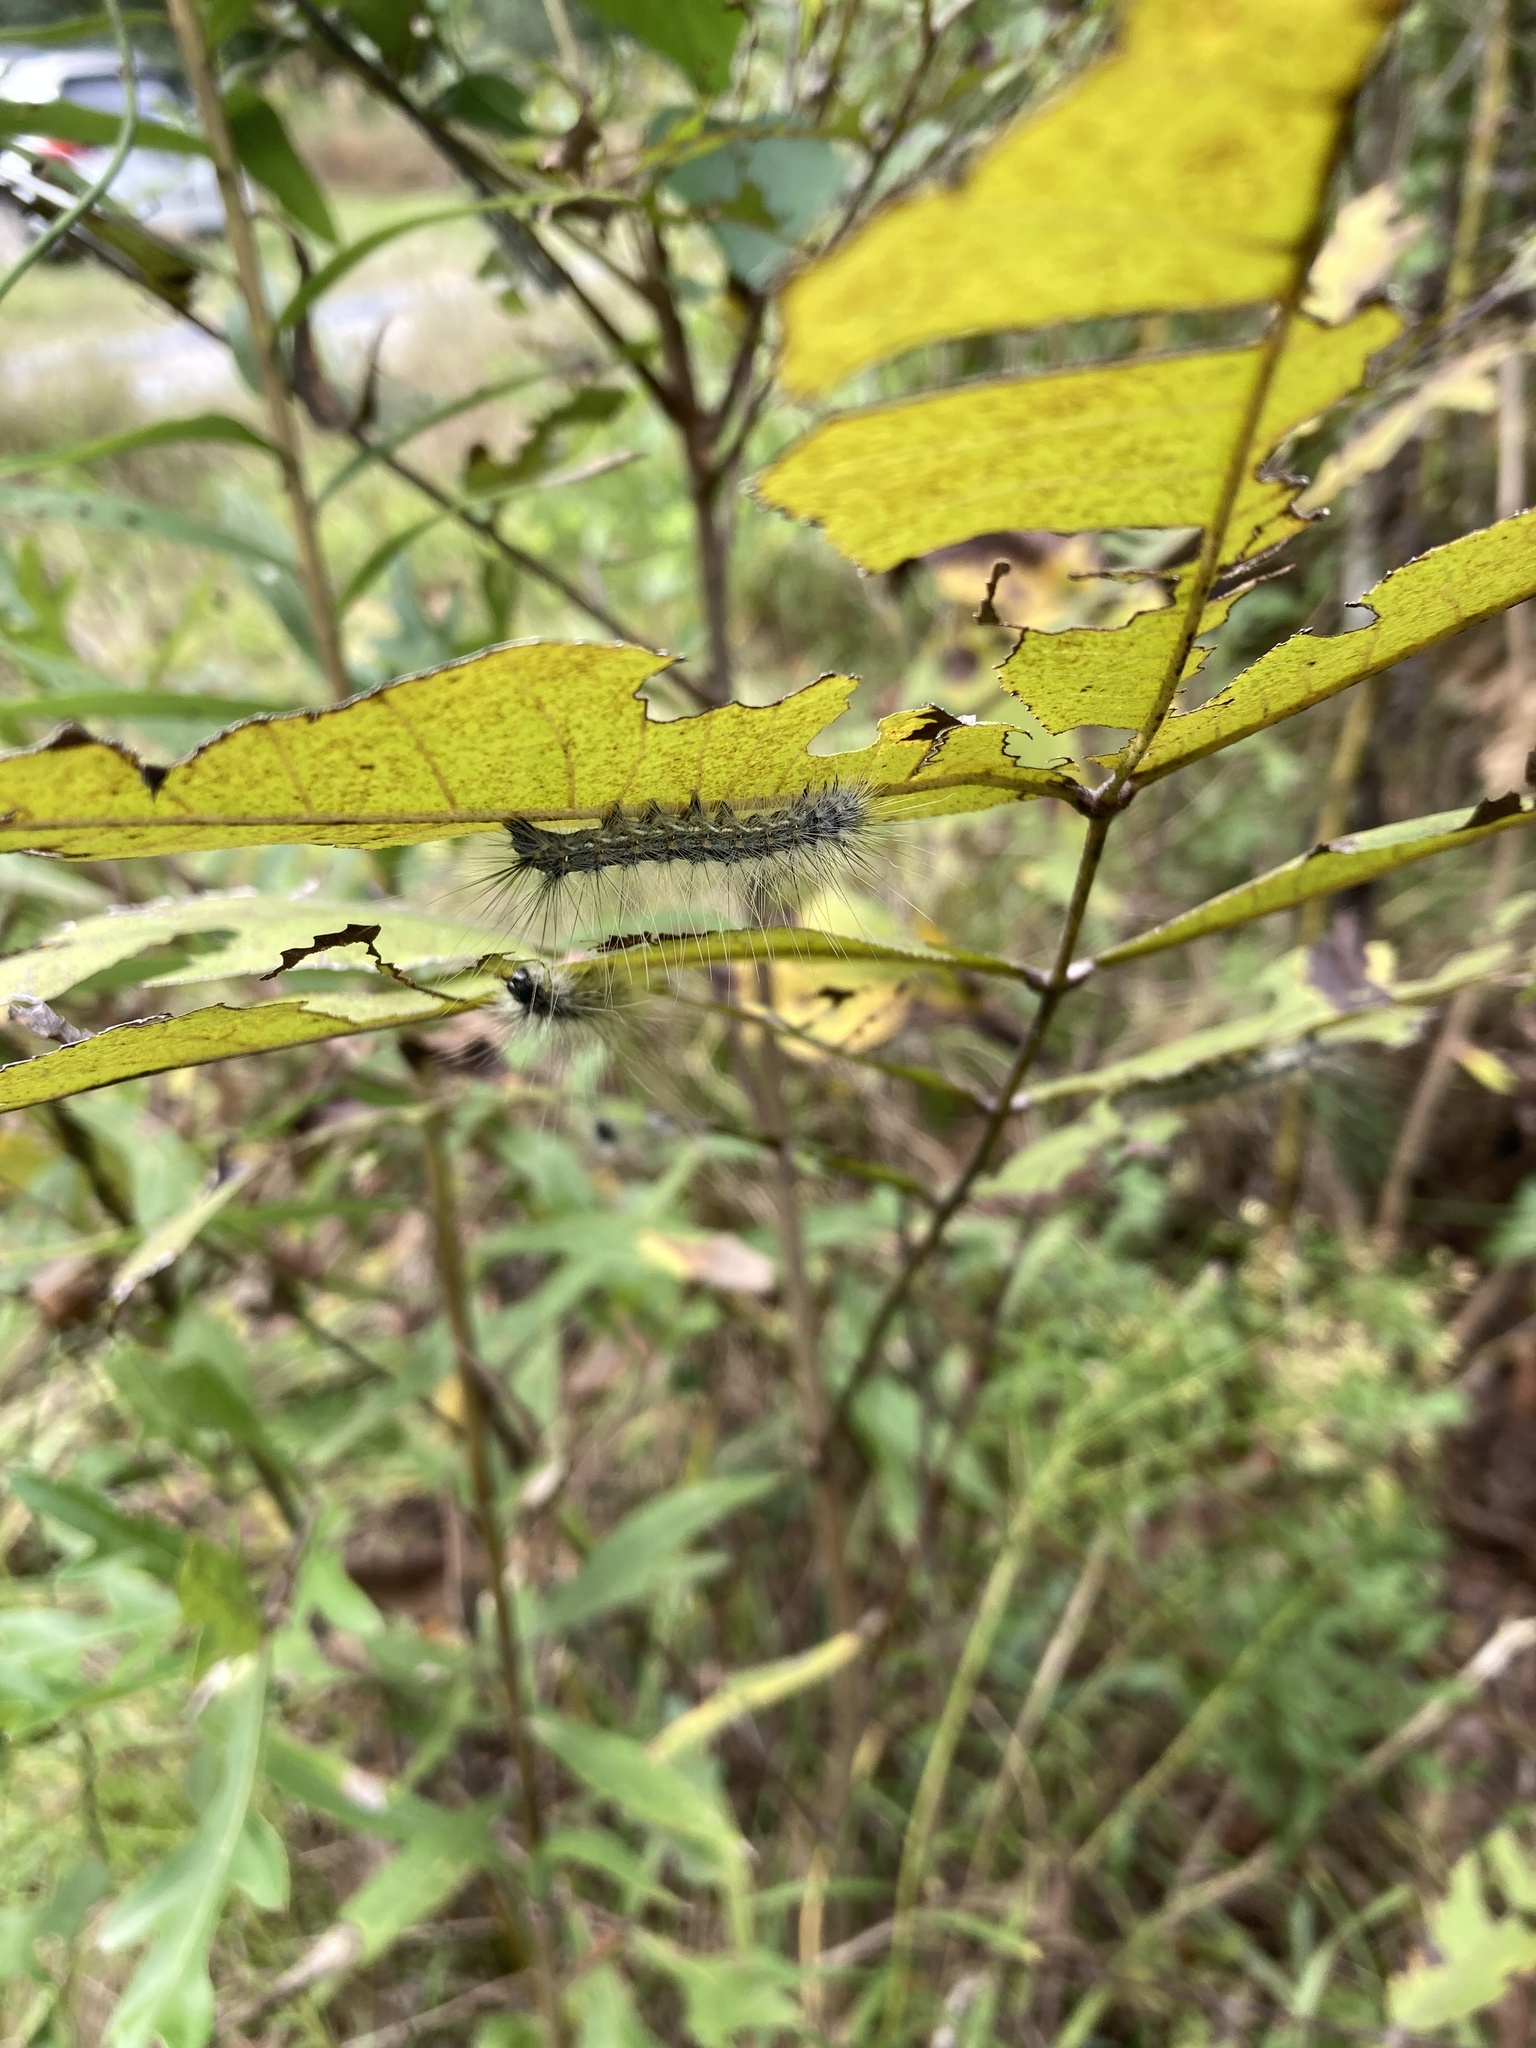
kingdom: Animalia
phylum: Arthropoda
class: Insecta
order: Lepidoptera
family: Erebidae
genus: Hyphantria
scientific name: Hyphantria cunea
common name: American white moth
